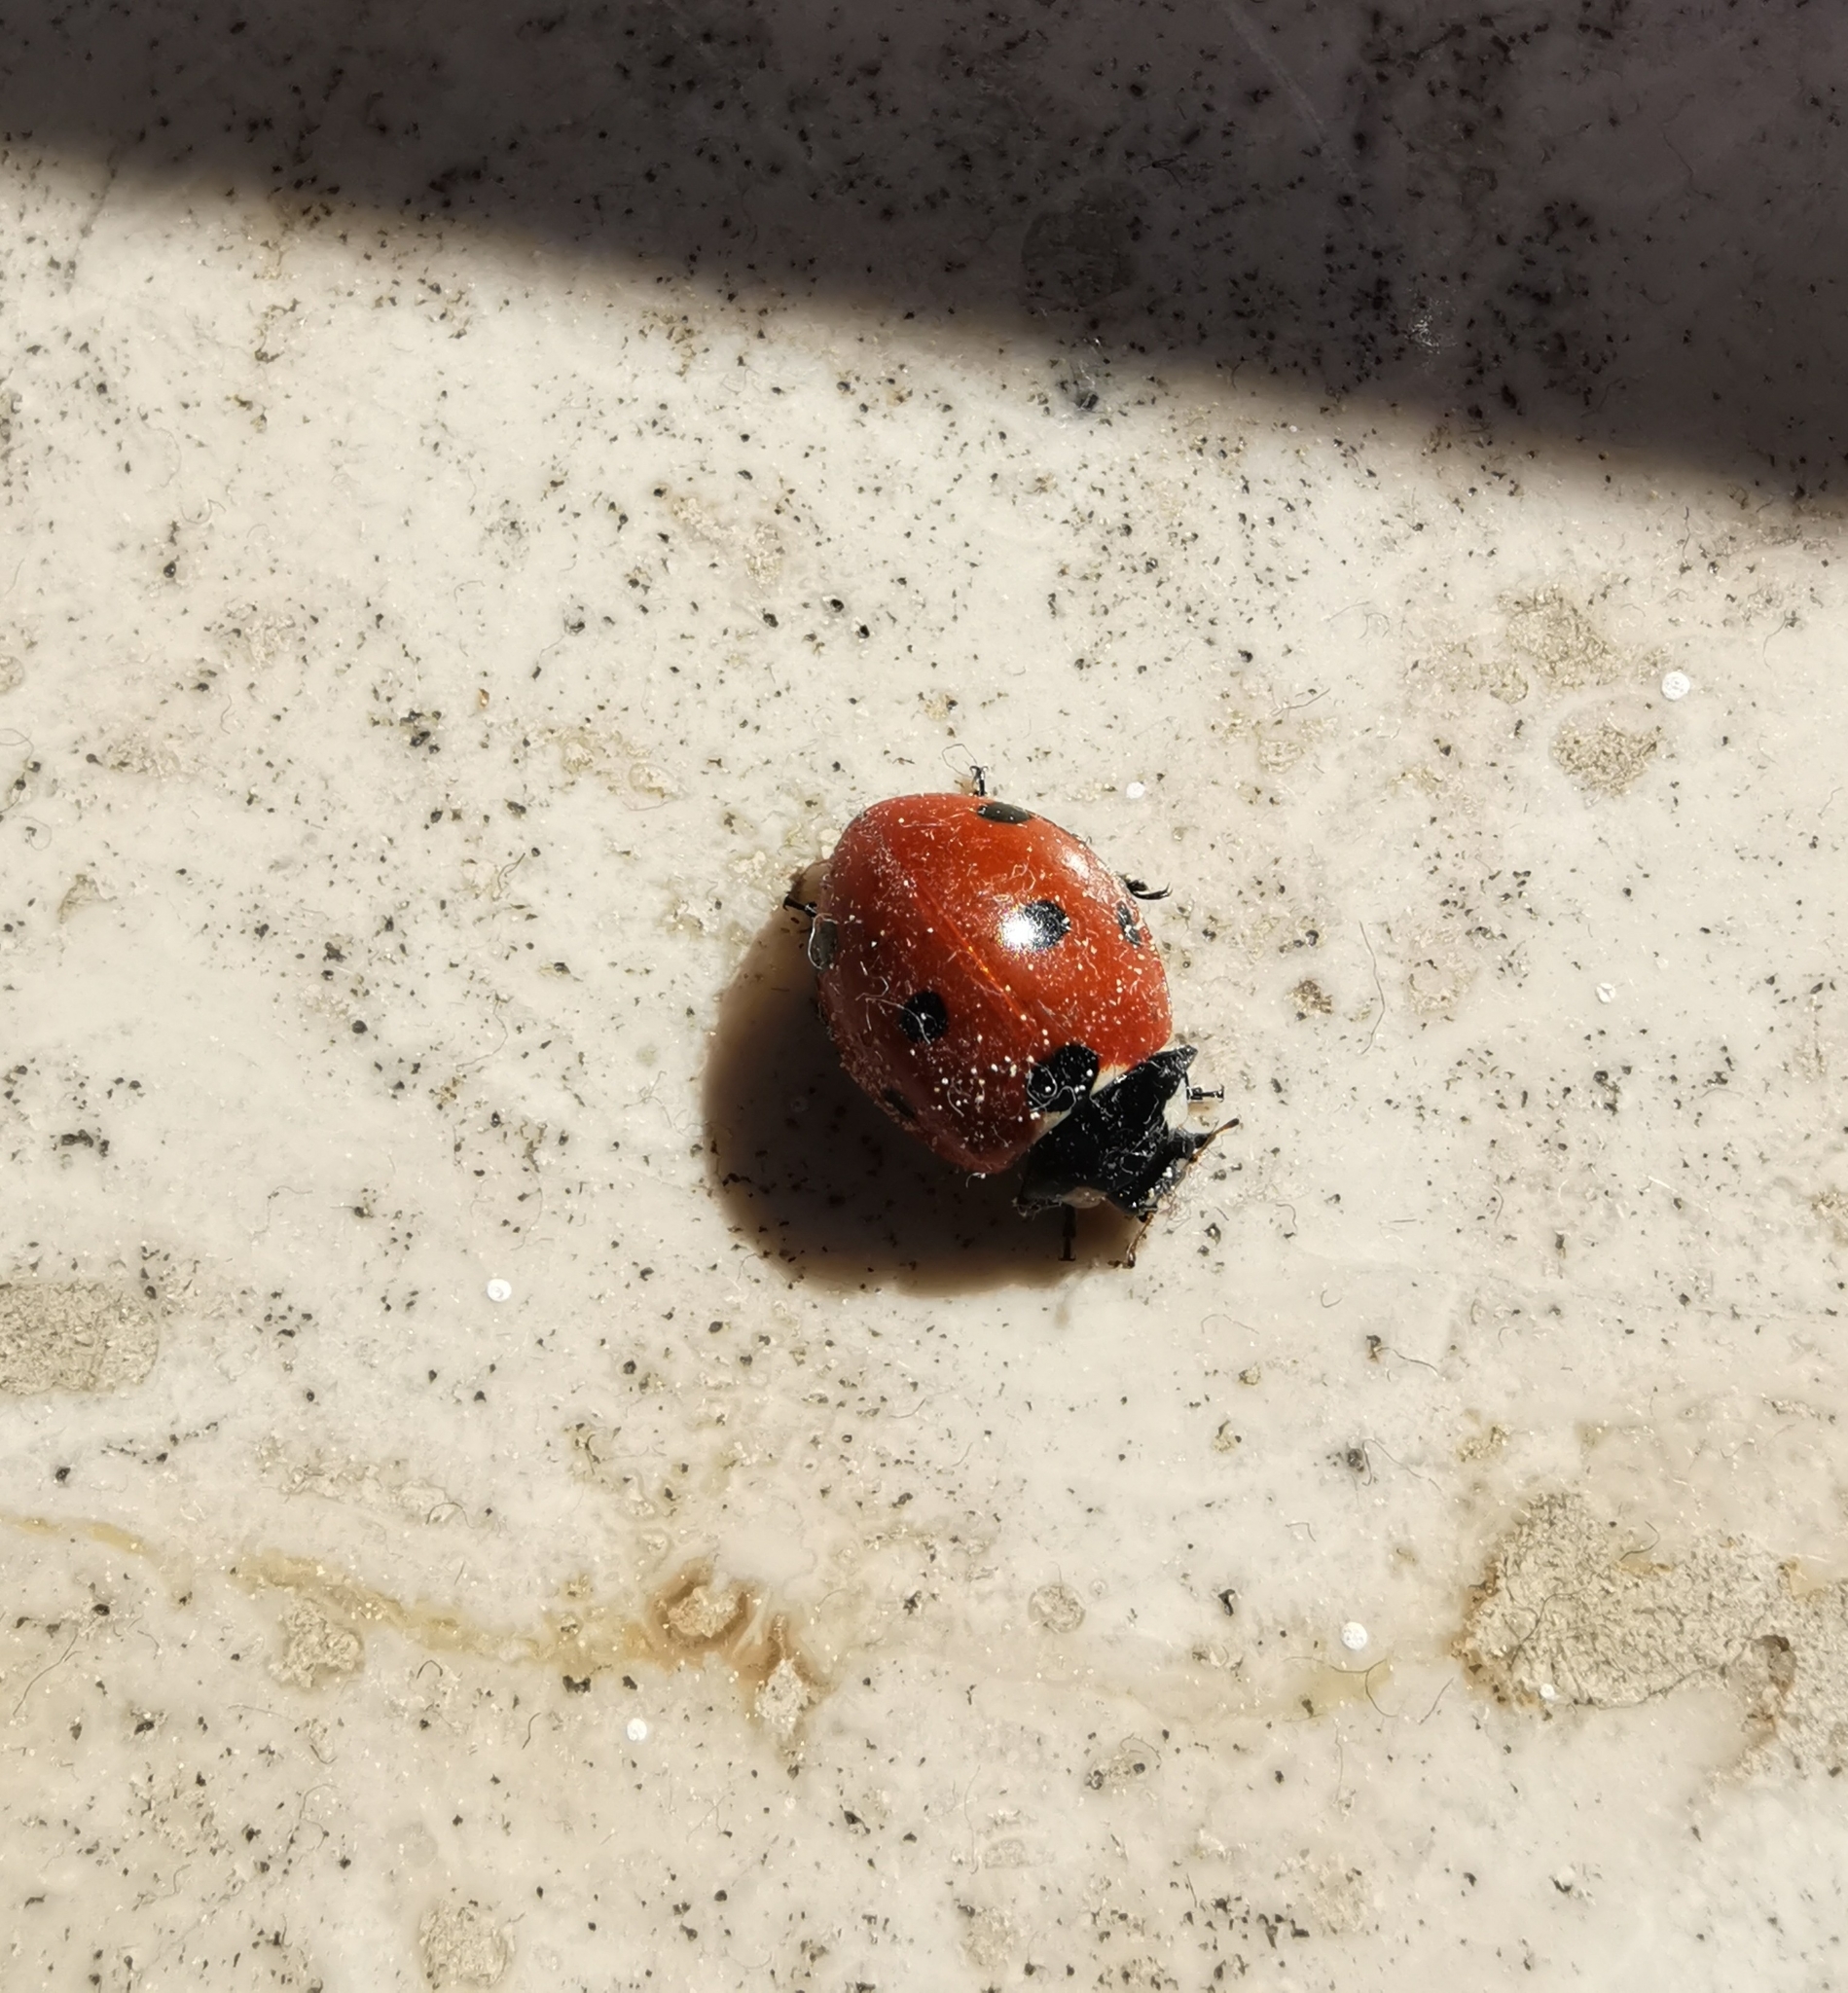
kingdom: Animalia
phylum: Arthropoda
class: Insecta
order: Coleoptera
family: Coccinellidae
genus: Coccinella
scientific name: Coccinella septempunctata
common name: Sevenspotted lady beetle
